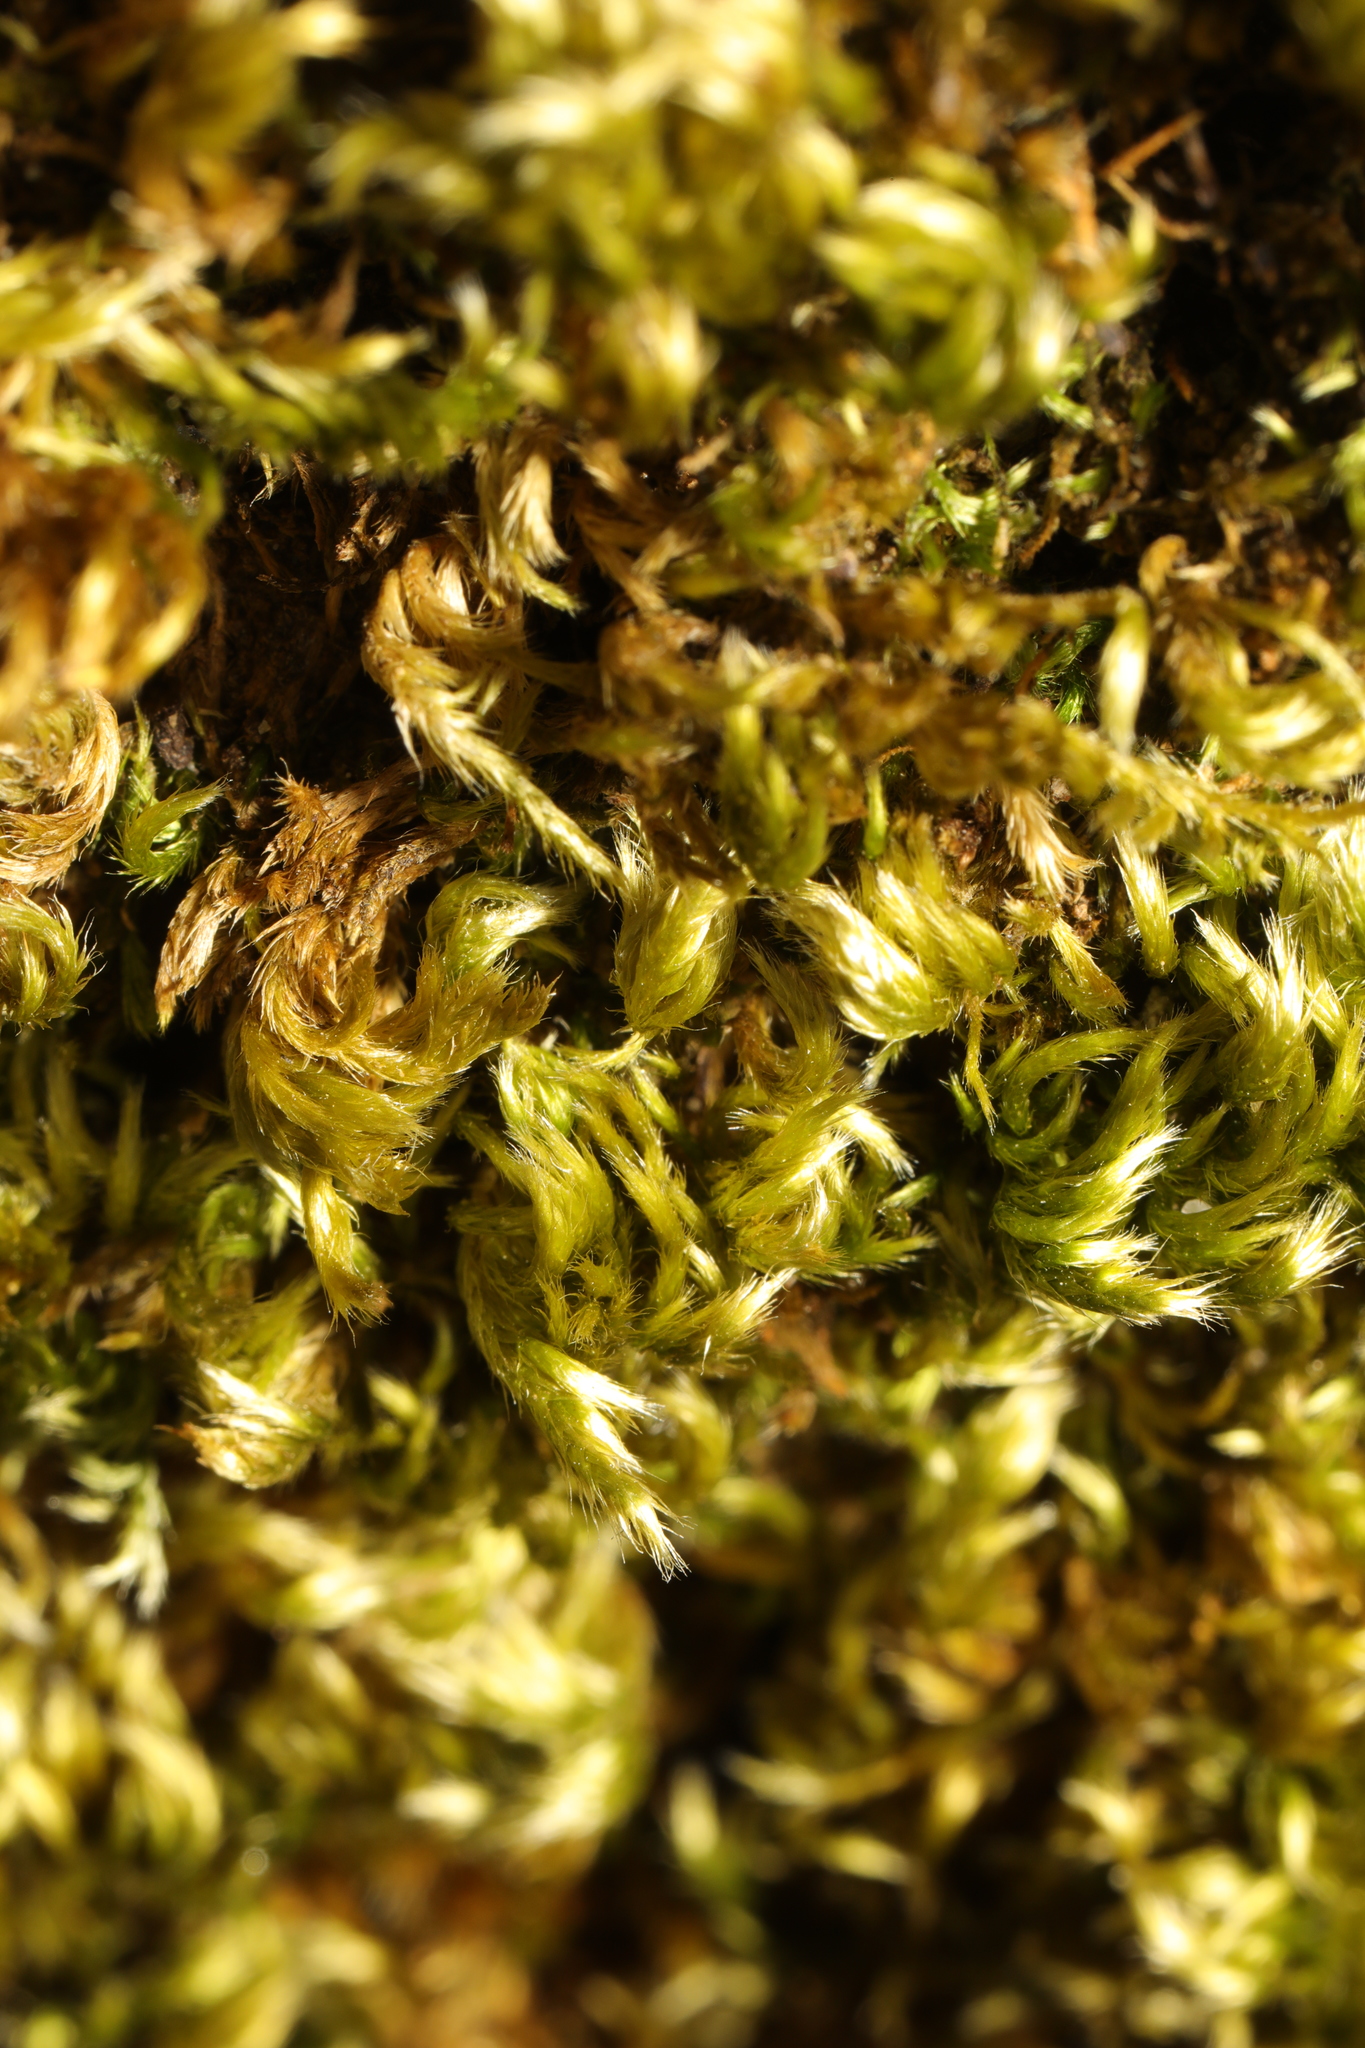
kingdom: Plantae
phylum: Bryophyta
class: Bryopsida
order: Hypnales
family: Brachytheciaceae
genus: Homalothecium
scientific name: Homalothecium sericeum
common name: Silky wall feather-moss
